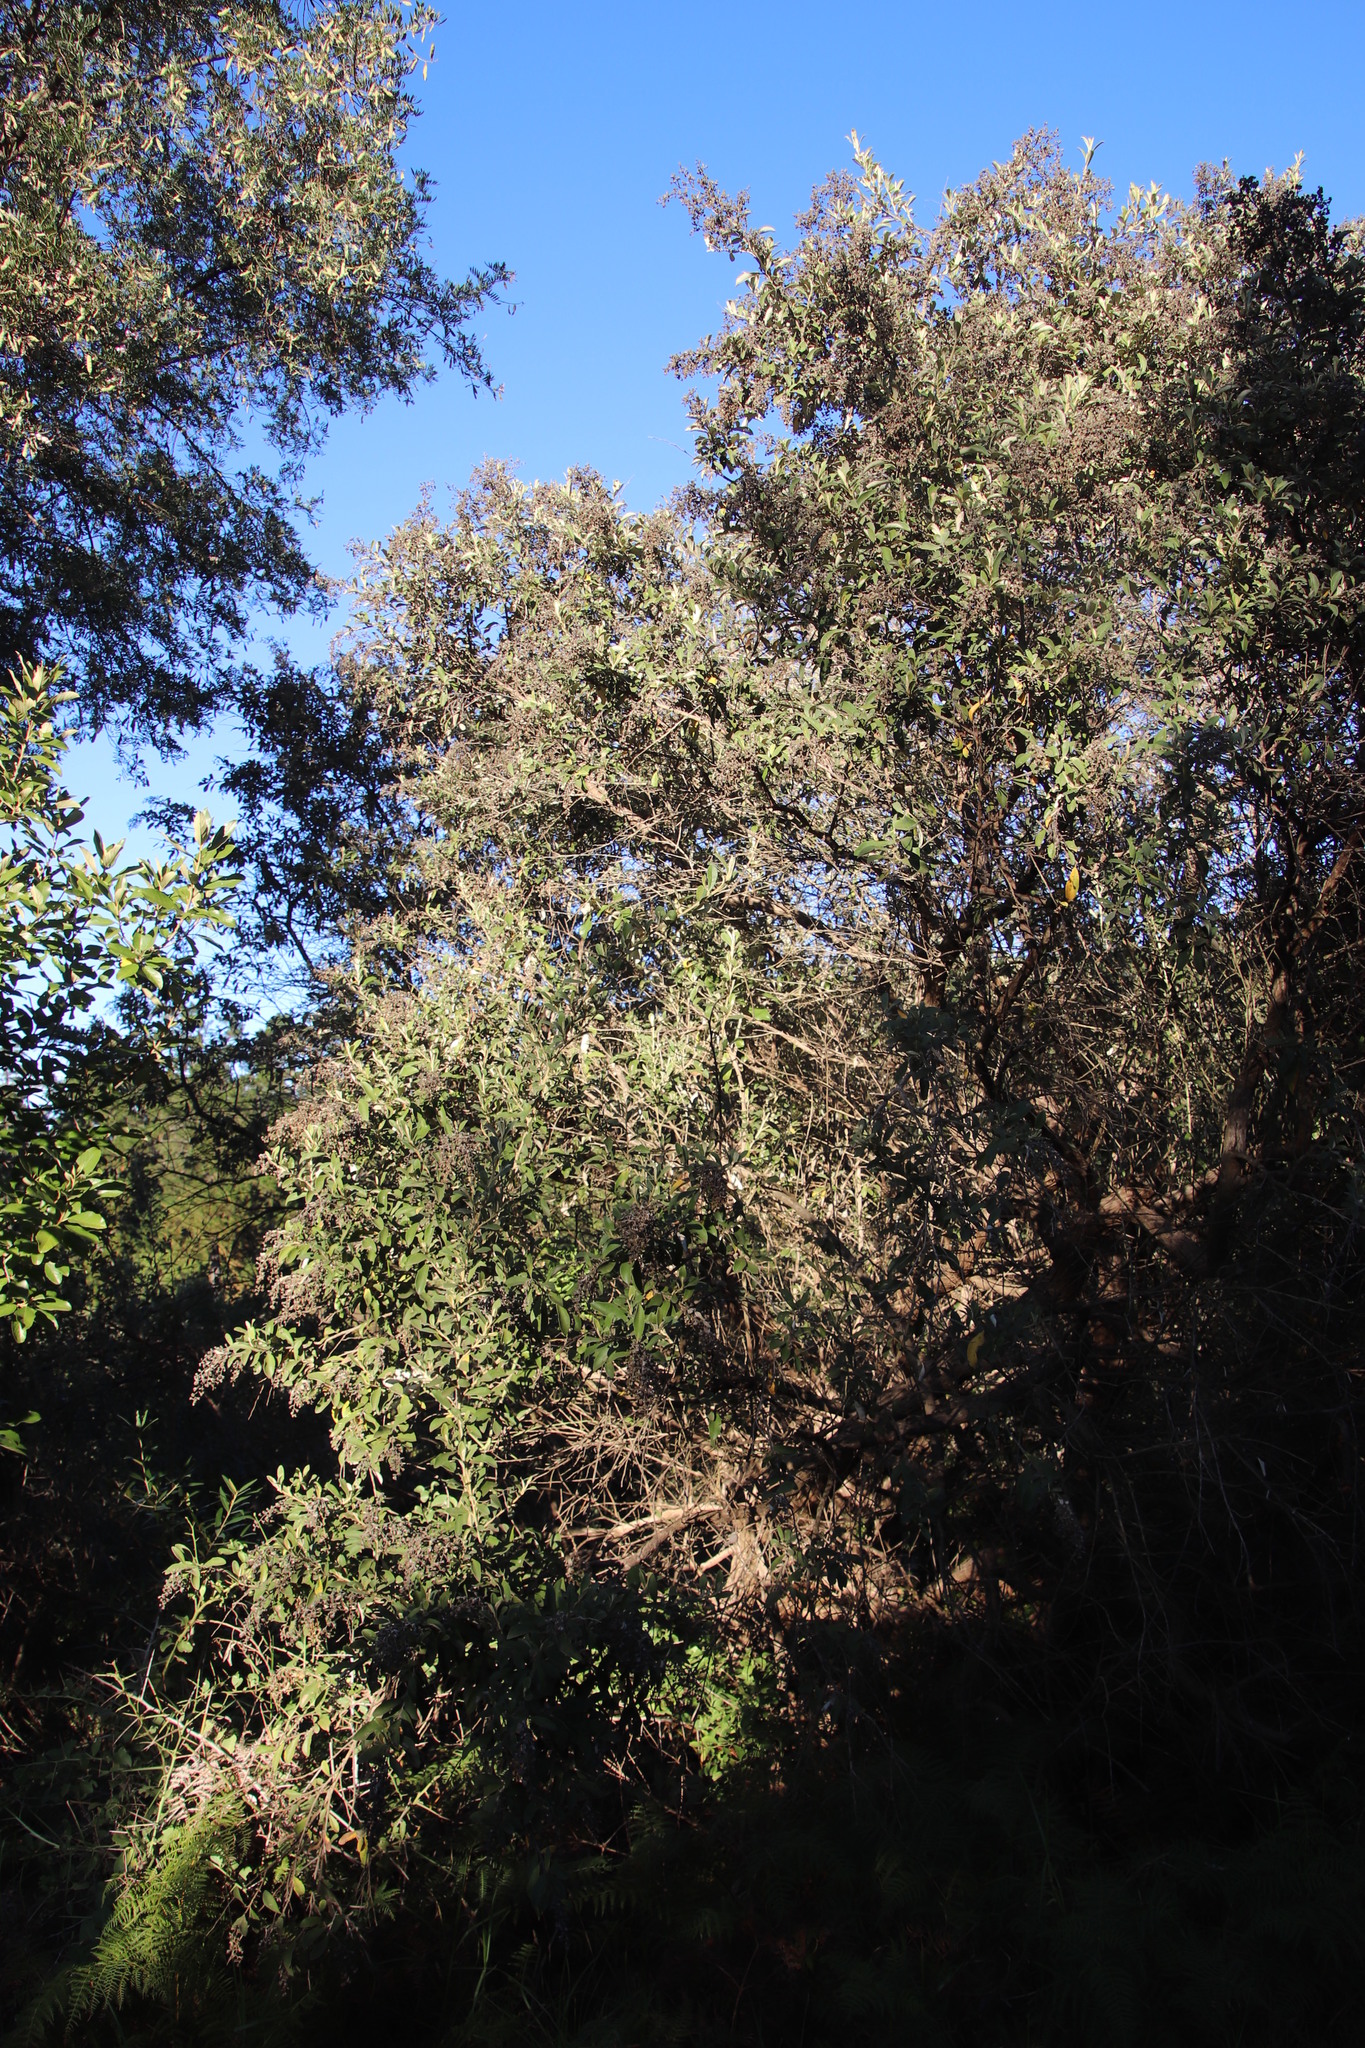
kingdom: Plantae
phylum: Tracheophyta
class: Magnoliopsida
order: Asterales
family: Asteraceae
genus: Tarchonanthus
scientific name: Tarchonanthus littoralis
